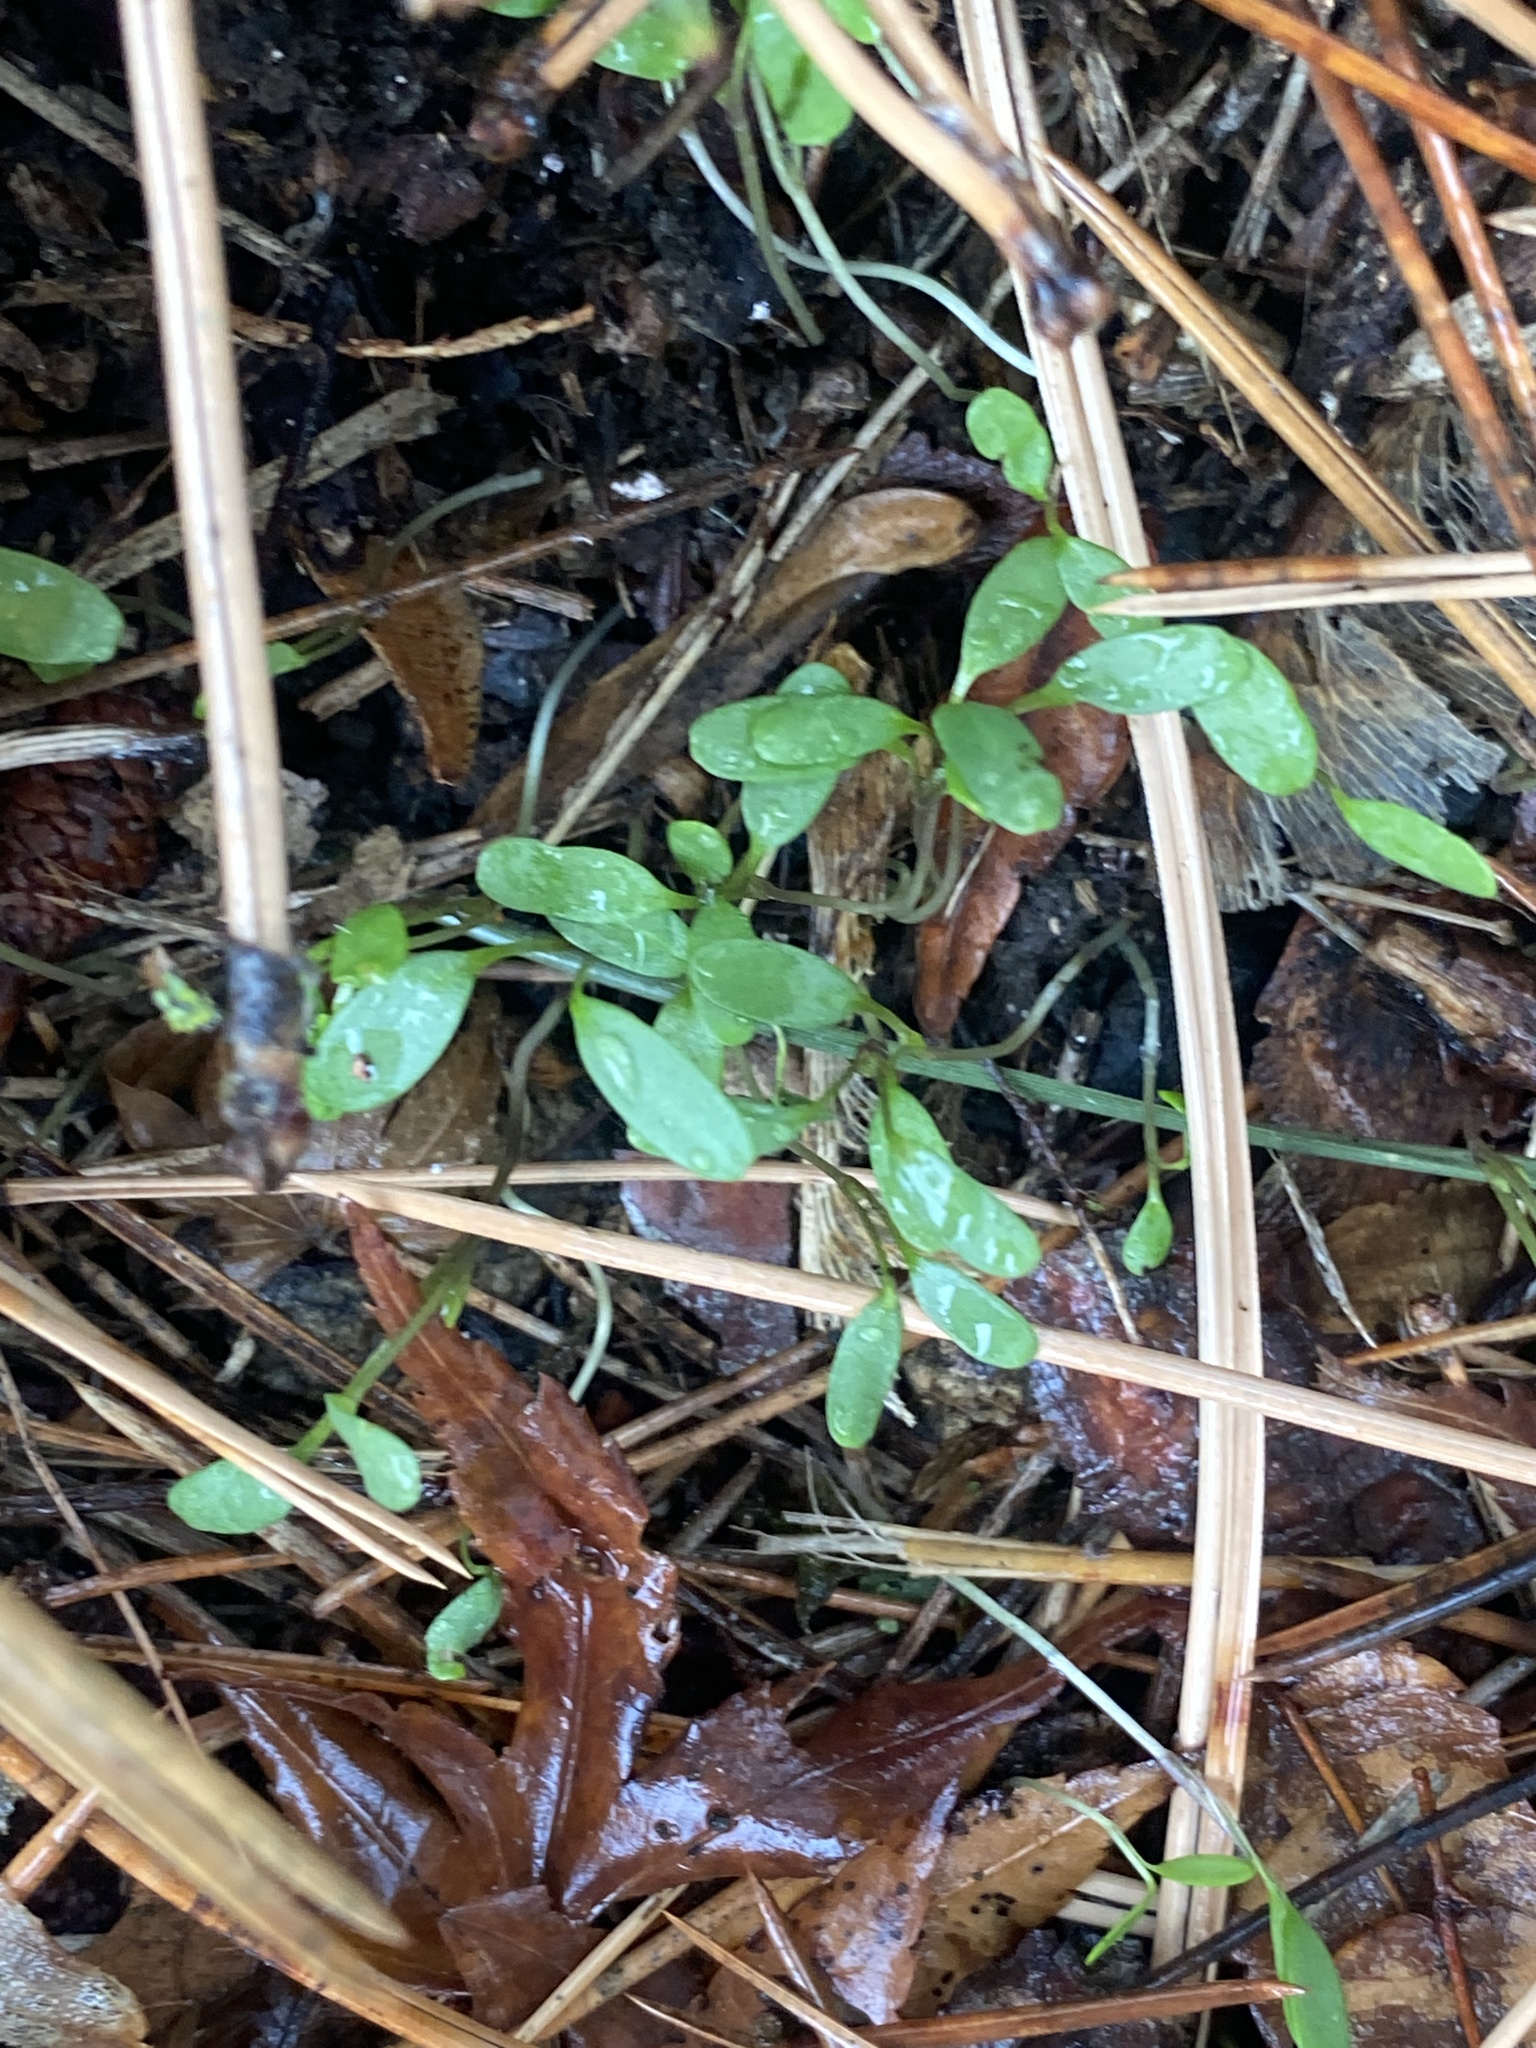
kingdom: Plantae
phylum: Tracheophyta
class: Magnoliopsida
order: Brassicales
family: Brassicaceae
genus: Alliaria
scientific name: Alliaria petiolata
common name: Garlic mustard
